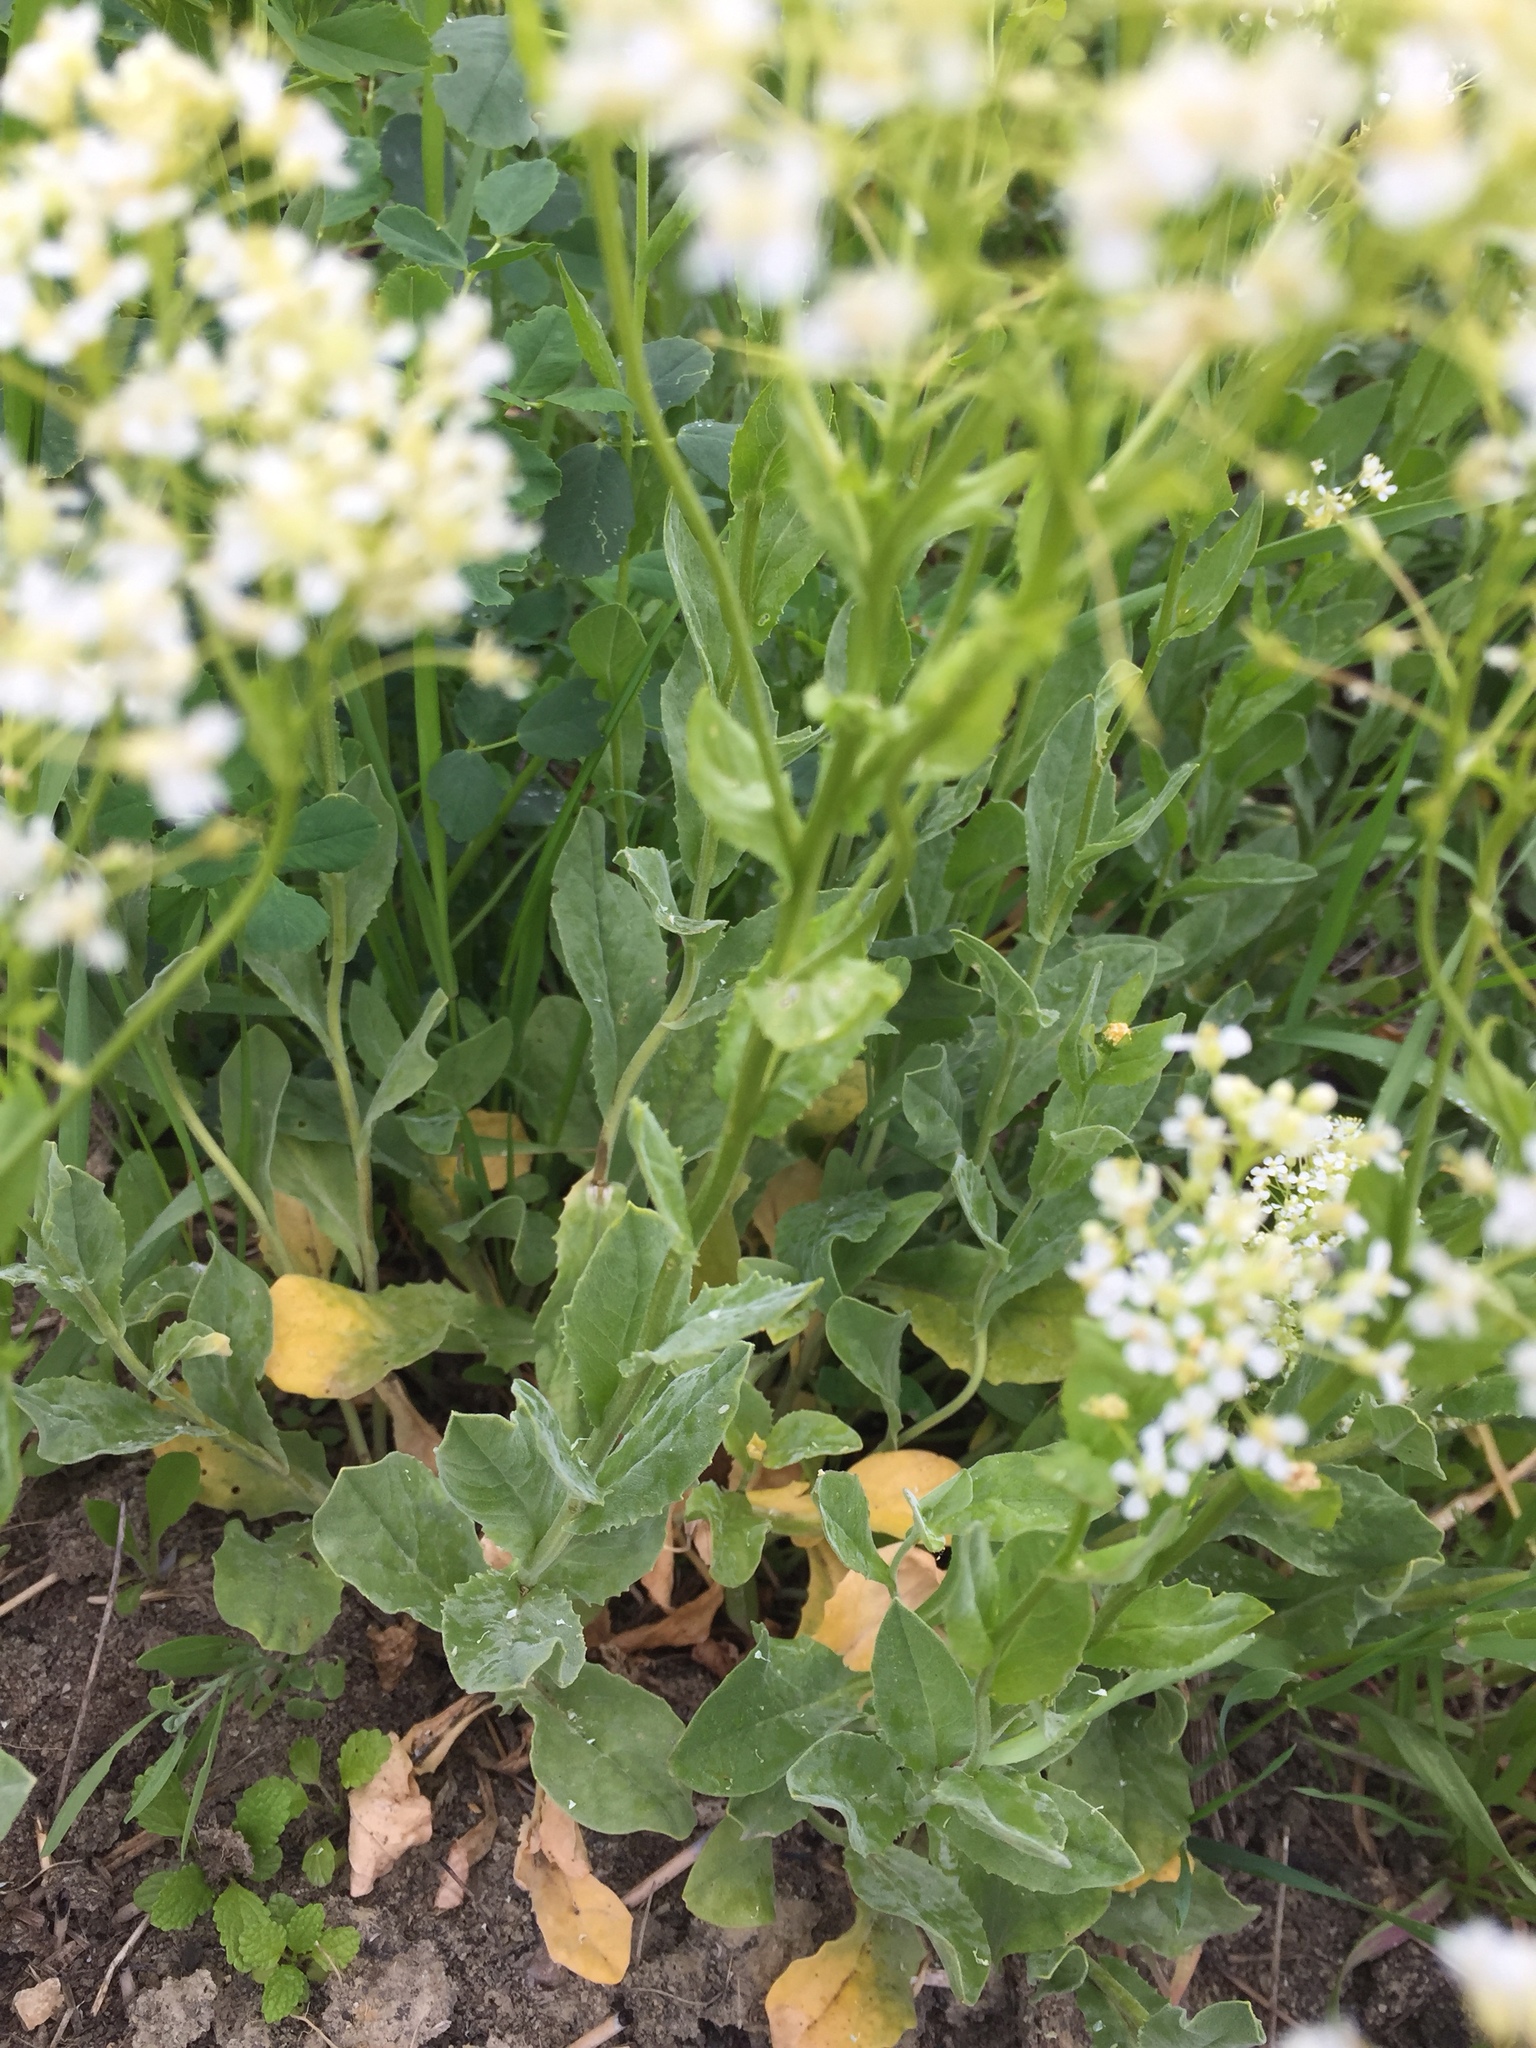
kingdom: Plantae
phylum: Tracheophyta
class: Magnoliopsida
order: Brassicales
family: Brassicaceae
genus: Lepidium
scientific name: Lepidium draba
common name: Hoary cress
